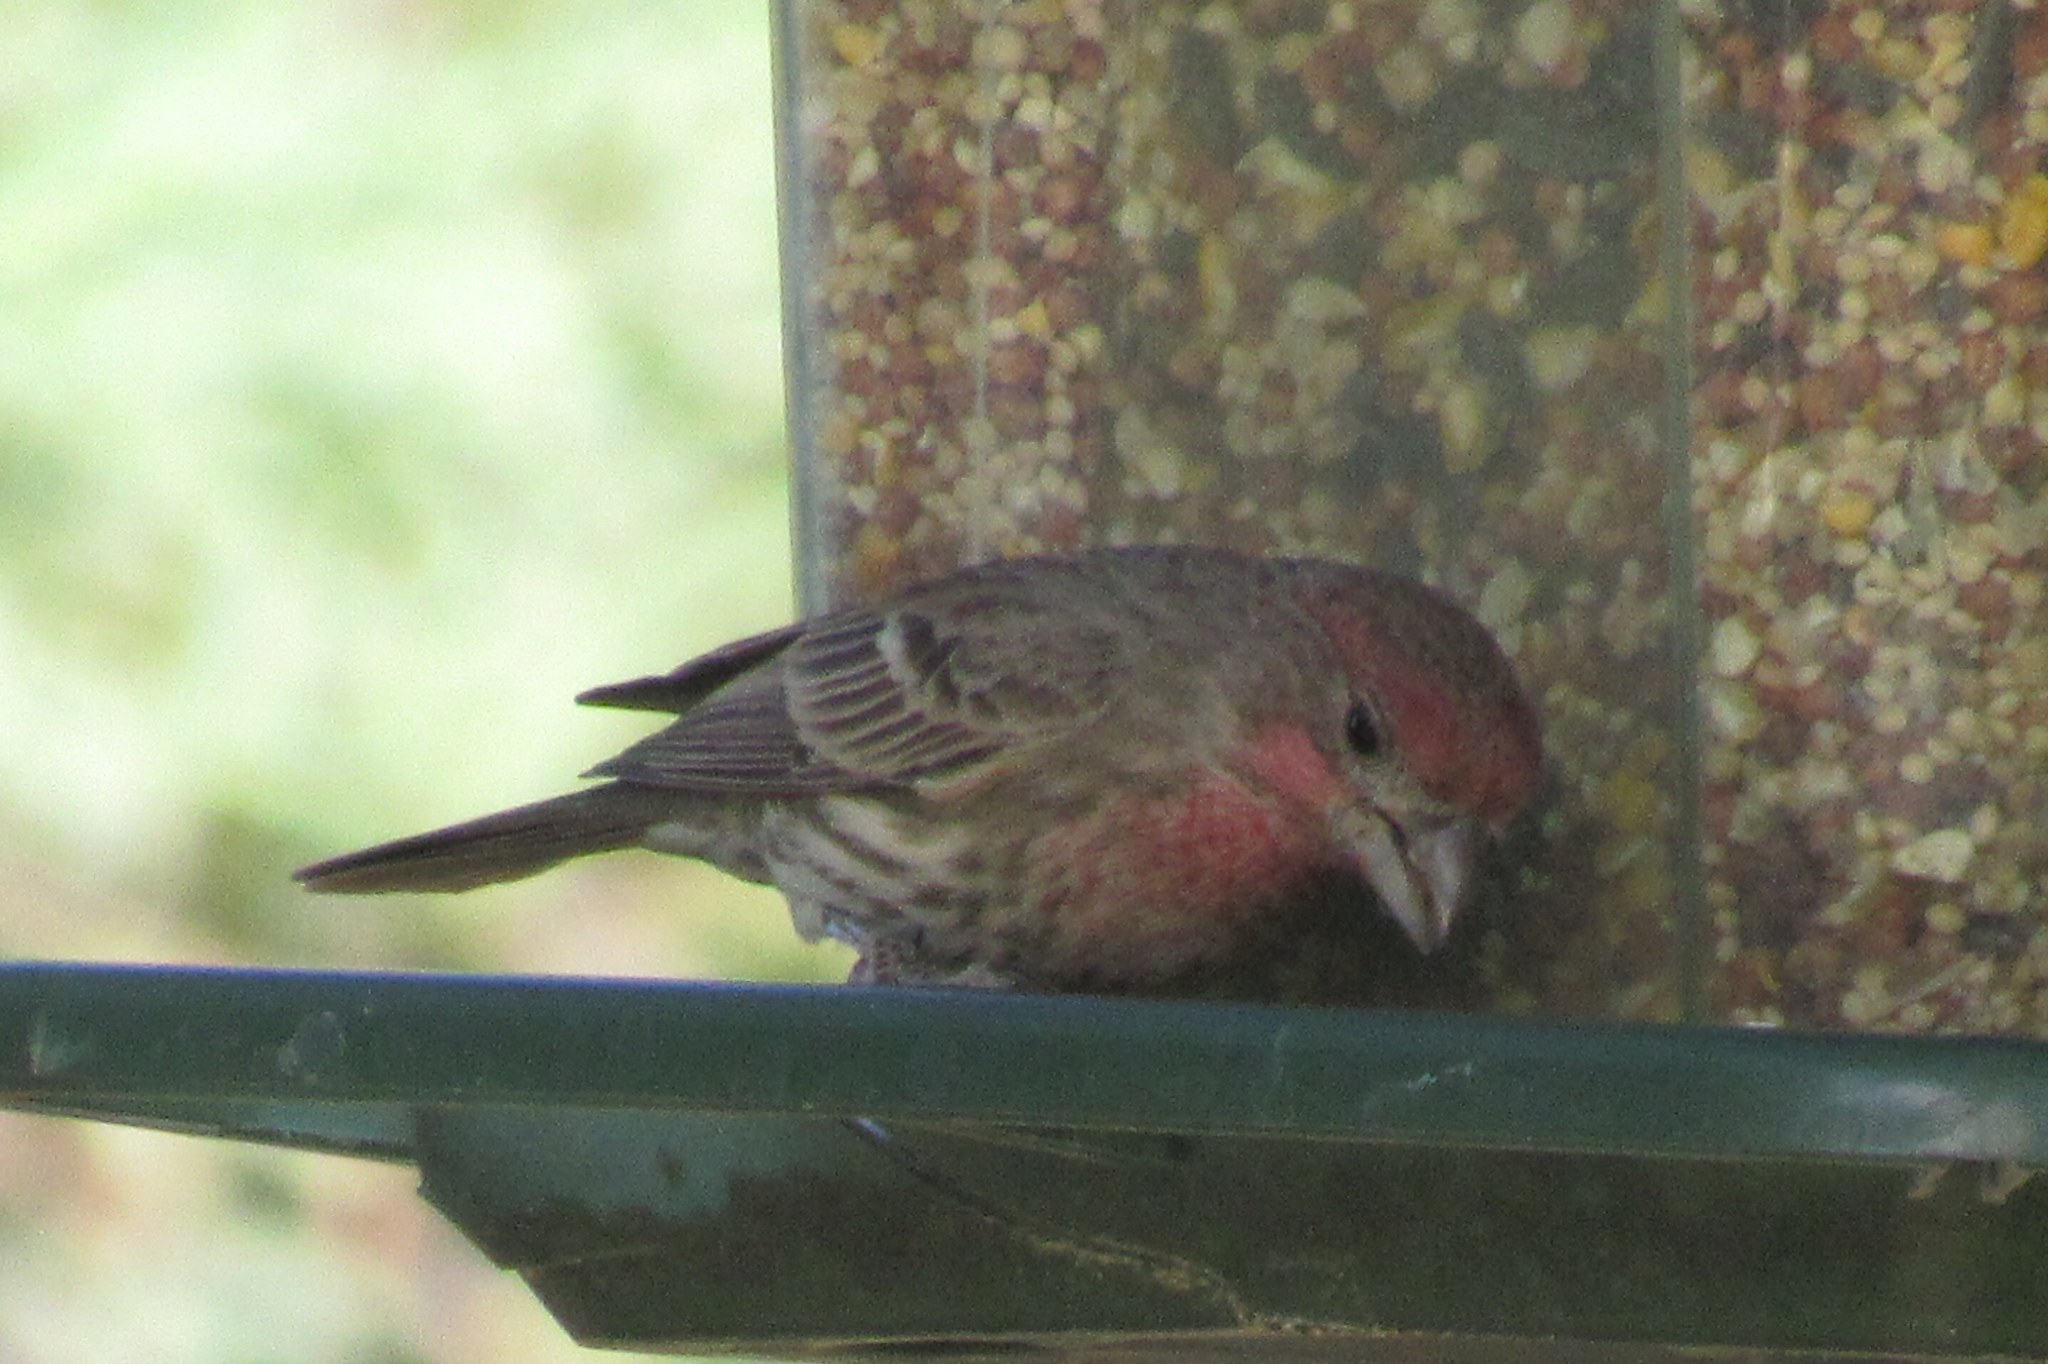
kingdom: Animalia
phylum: Chordata
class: Aves
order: Passeriformes
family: Fringillidae
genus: Haemorhous
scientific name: Haemorhous mexicanus
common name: House finch
